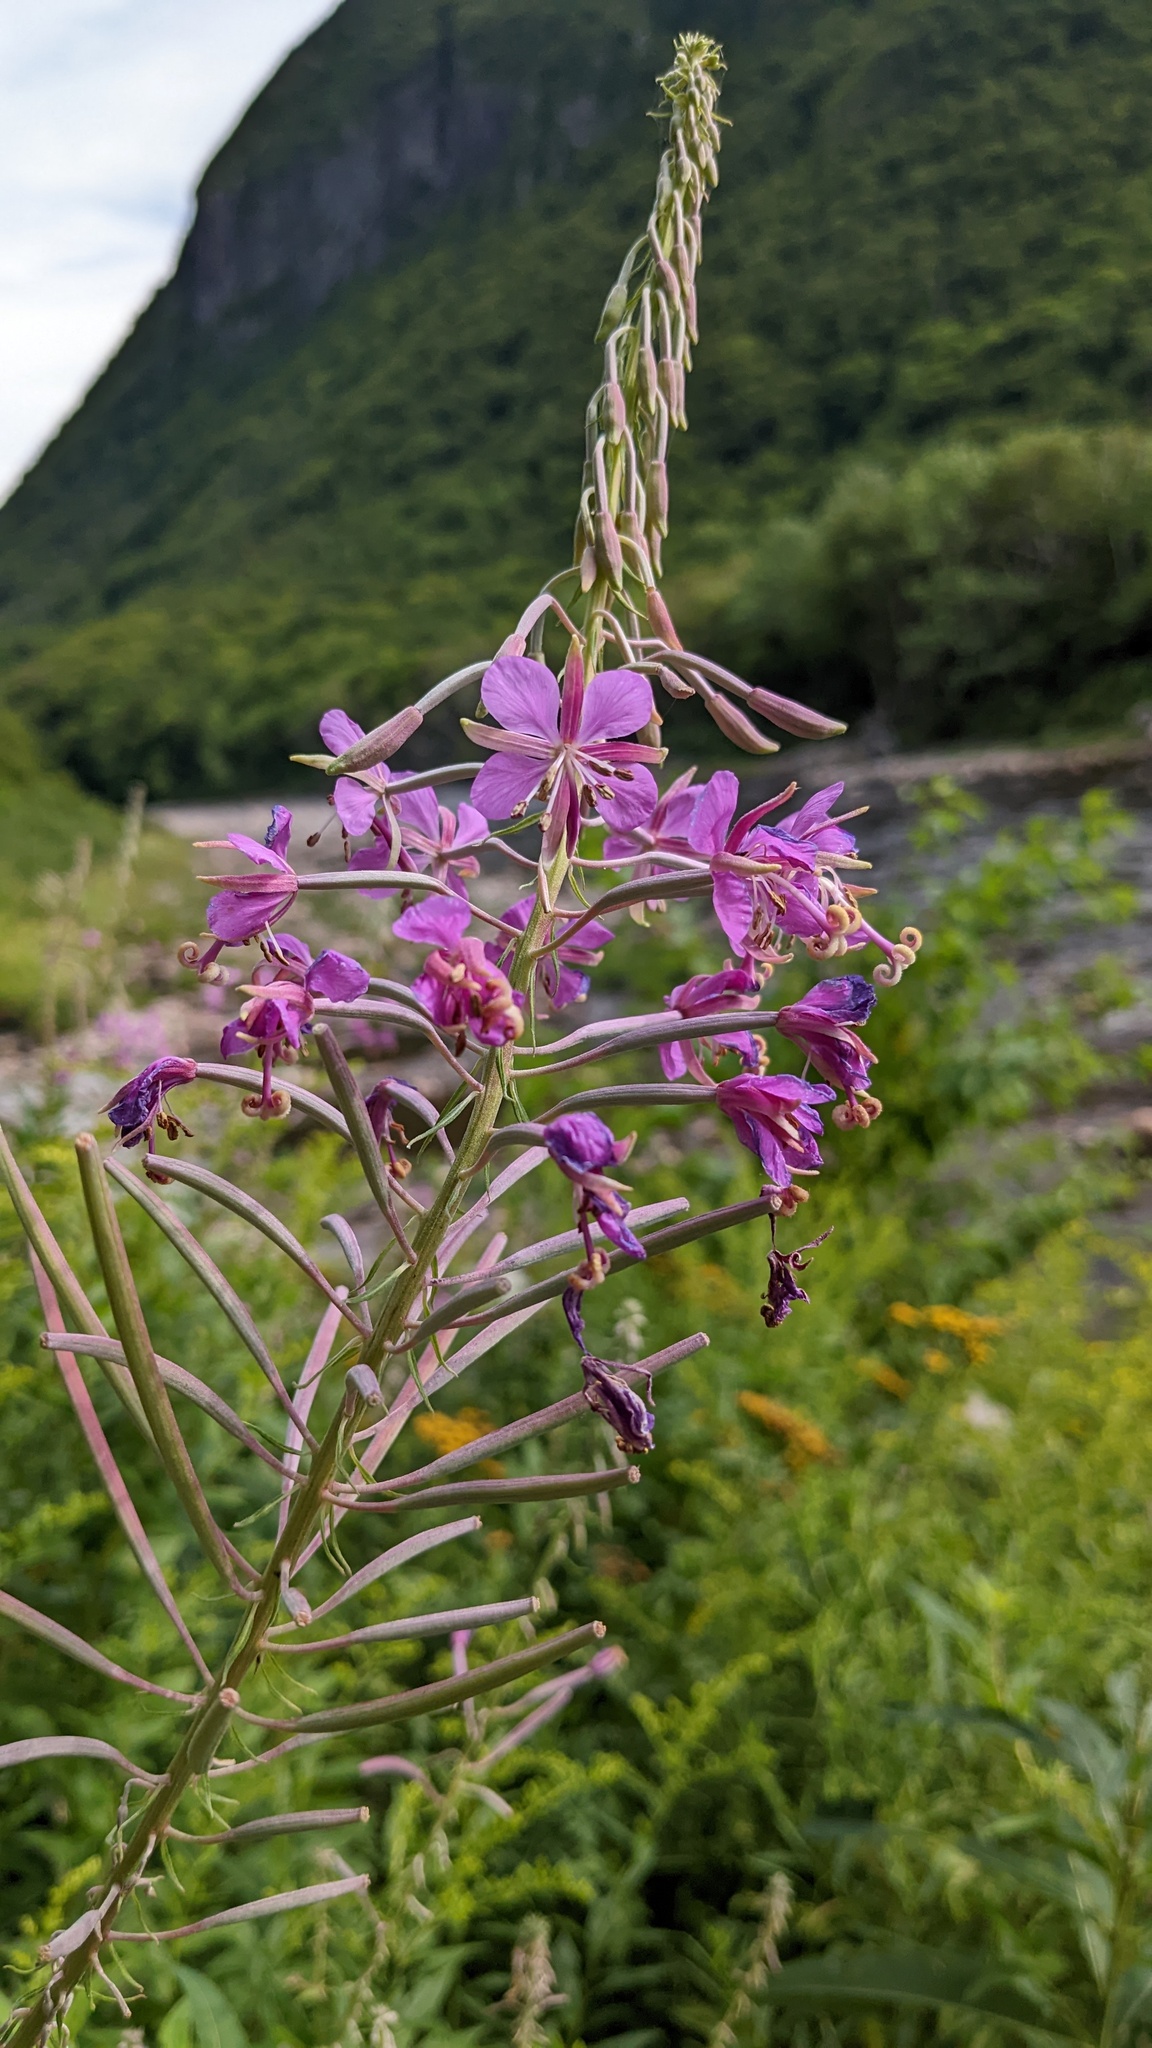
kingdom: Plantae
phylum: Tracheophyta
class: Magnoliopsida
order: Myrtales
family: Onagraceae
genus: Chamaenerion
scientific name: Chamaenerion angustifolium
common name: Fireweed
